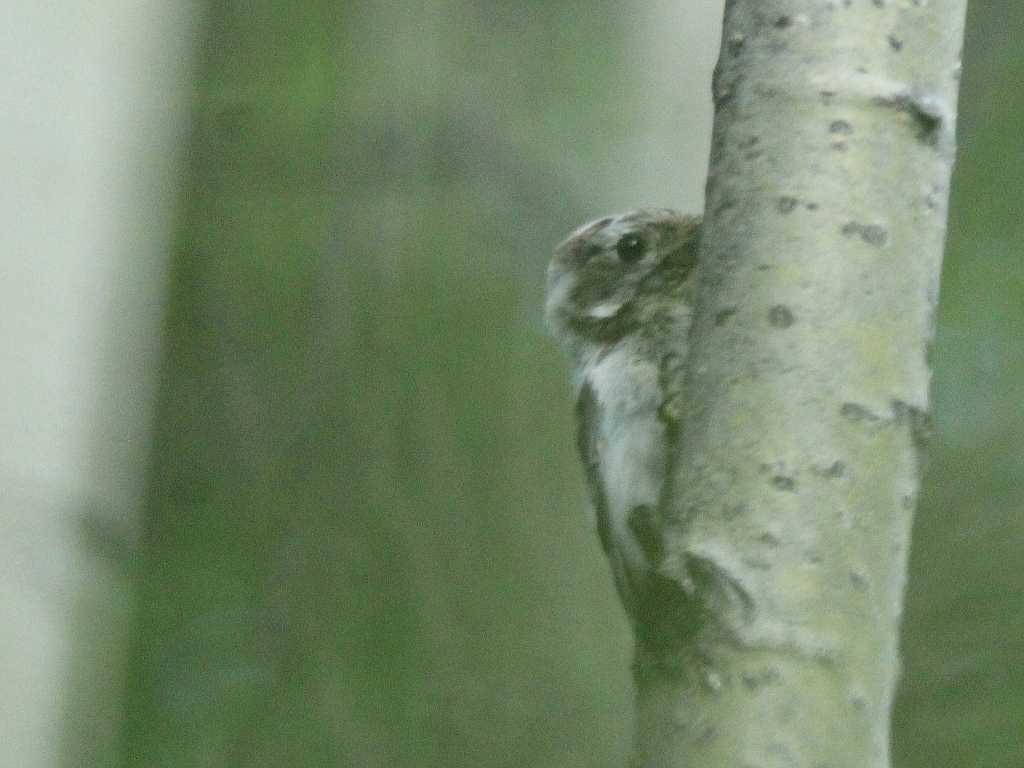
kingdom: Animalia
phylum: Chordata
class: Aves
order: Piciformes
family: Picidae
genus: Dryobates
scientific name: Dryobates minor
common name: Lesser spotted woodpecker
